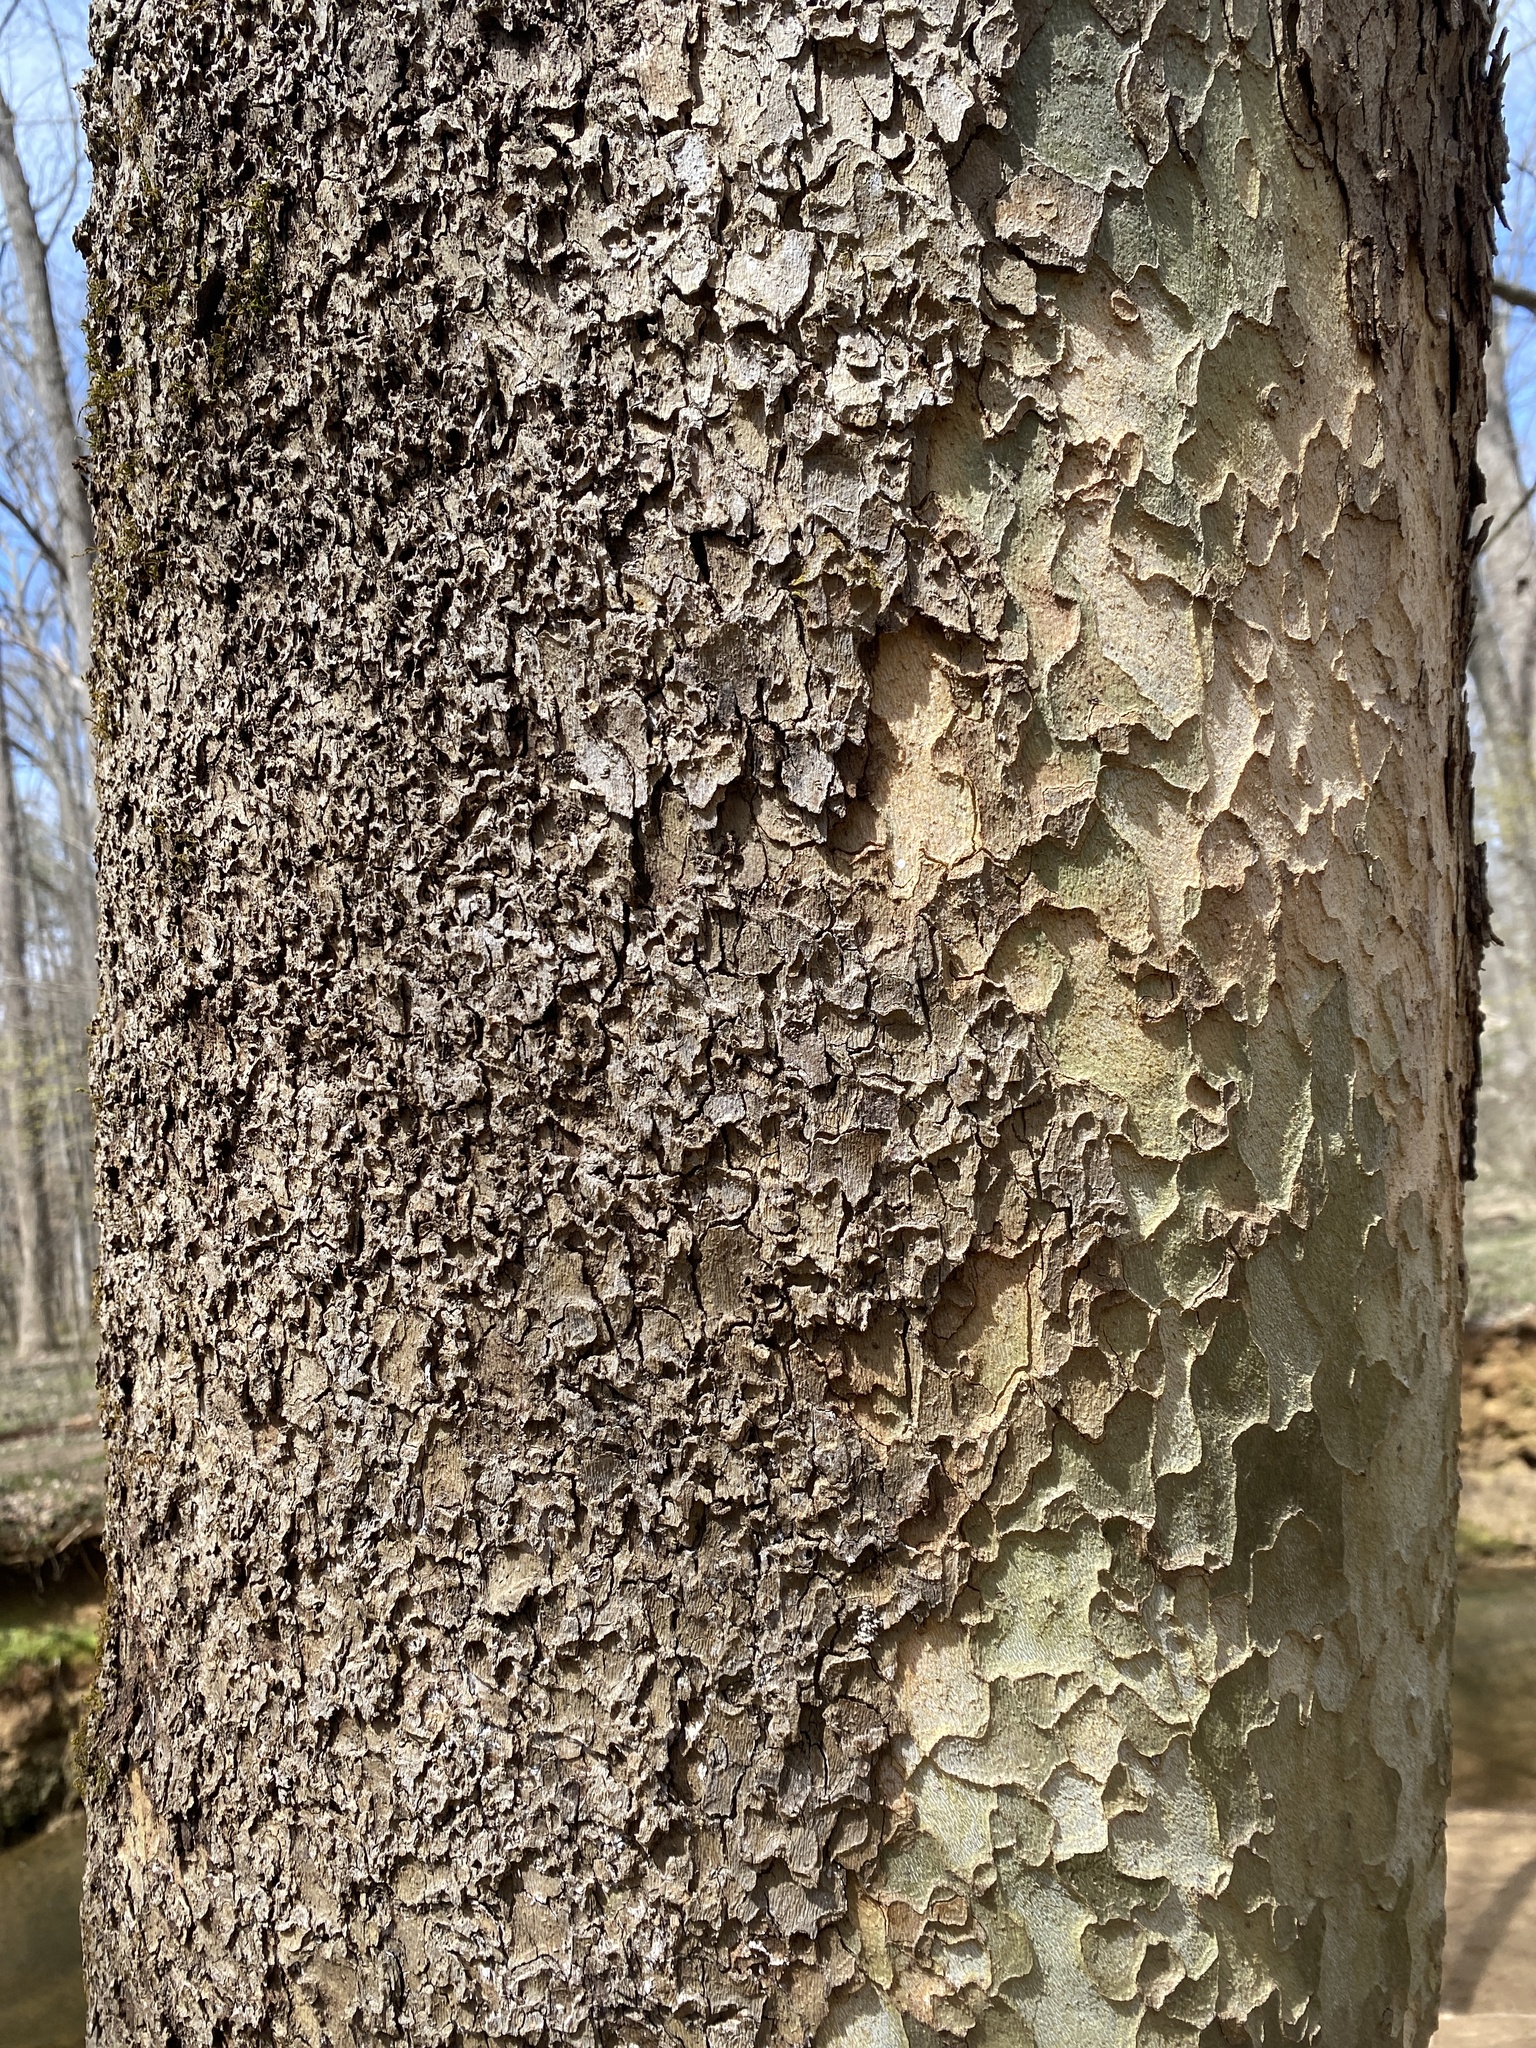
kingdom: Plantae
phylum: Tracheophyta
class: Magnoliopsida
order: Proteales
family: Platanaceae
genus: Platanus
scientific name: Platanus occidentalis
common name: American sycamore
